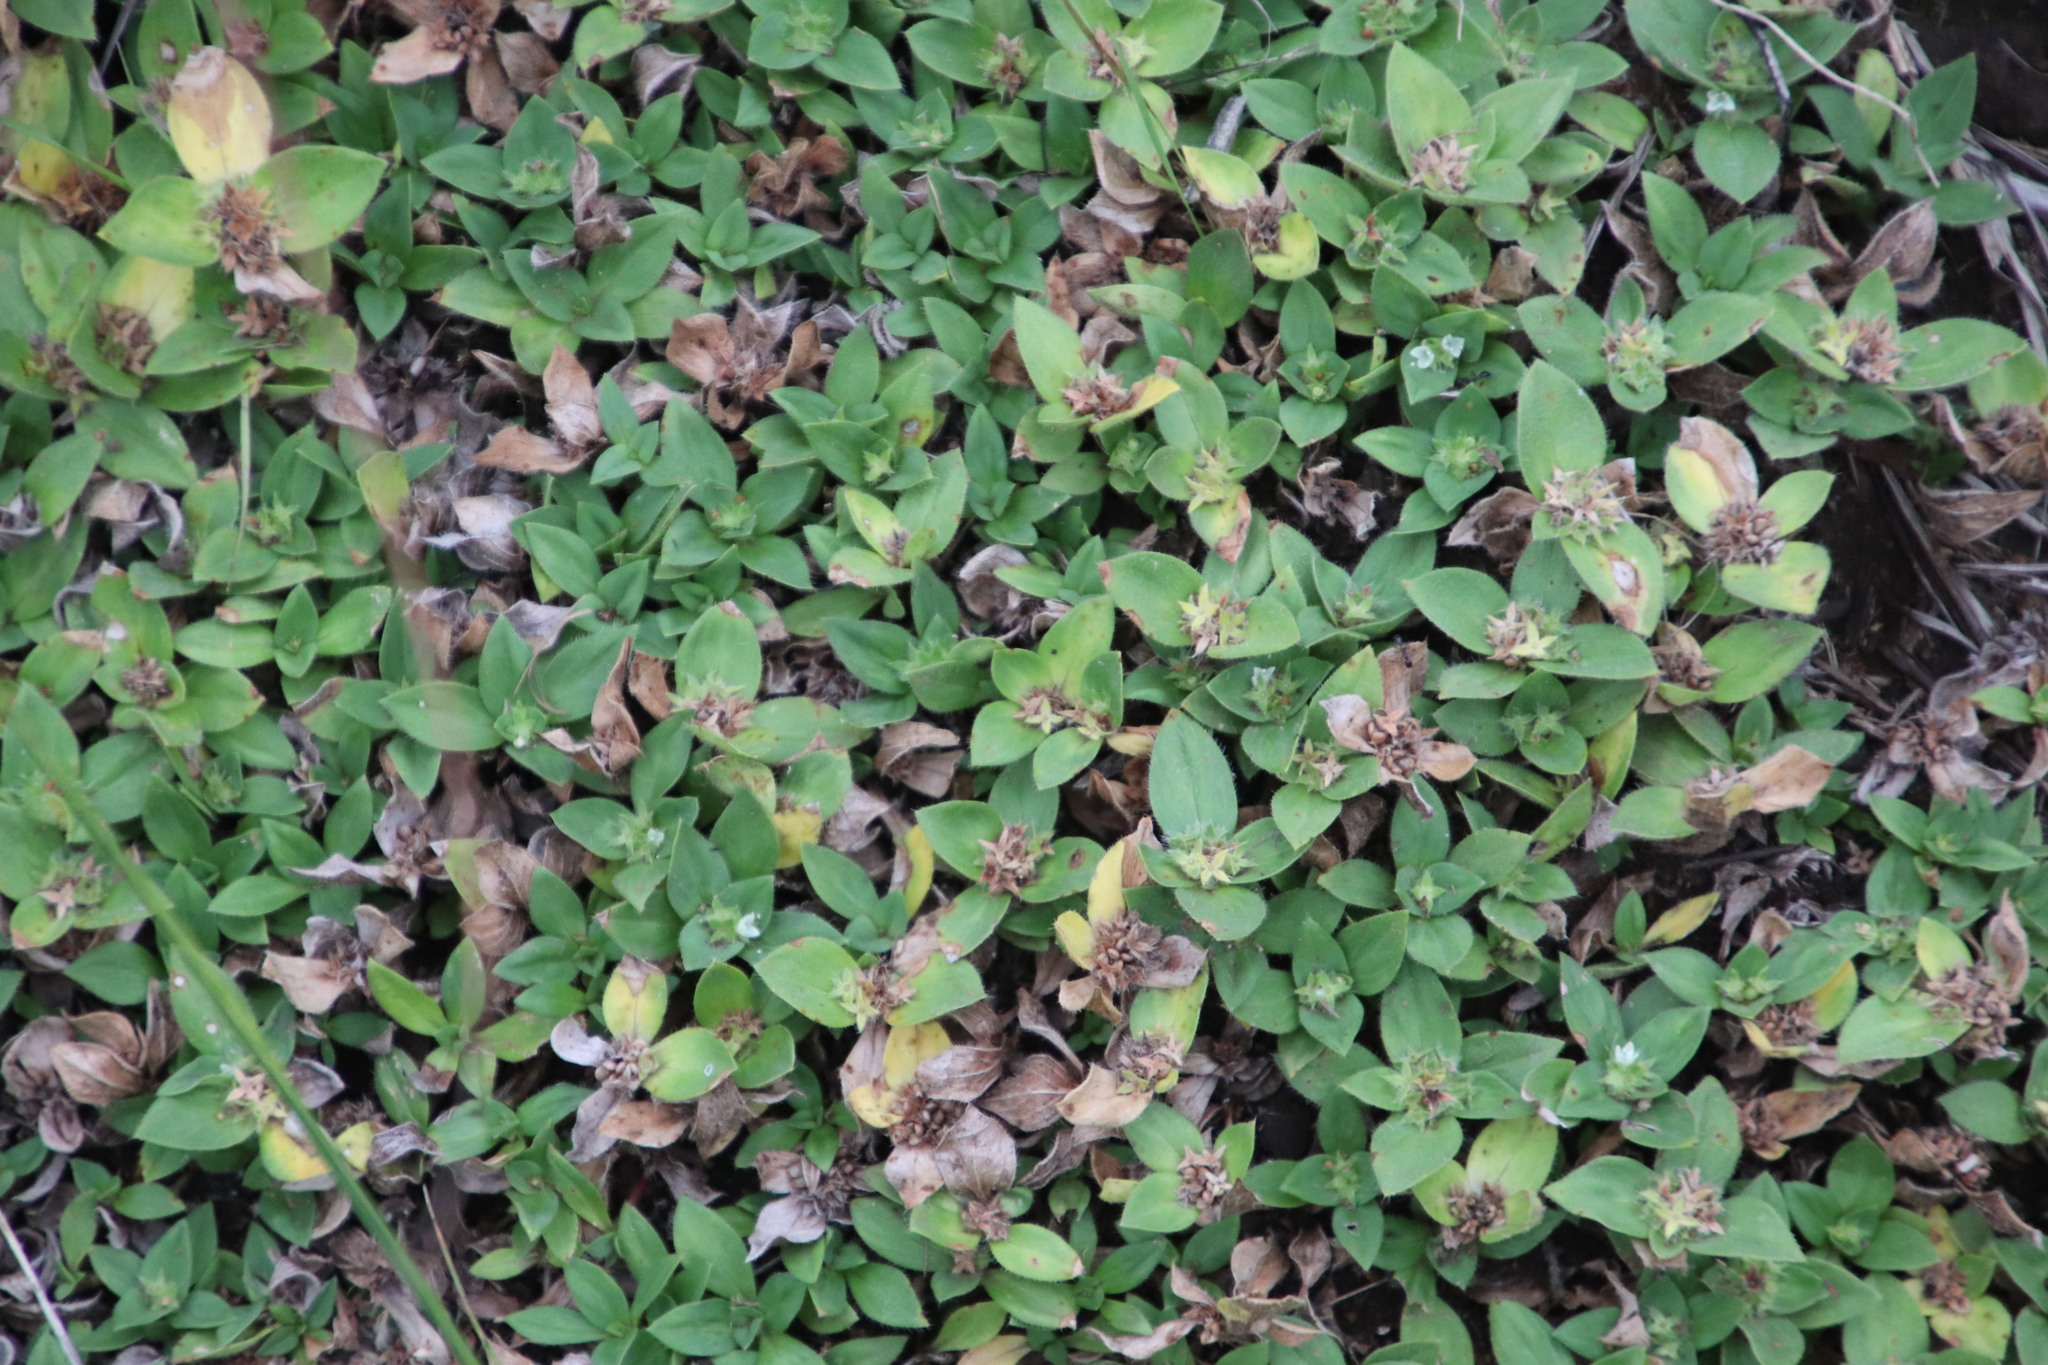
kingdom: Plantae
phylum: Tracheophyta
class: Magnoliopsida
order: Gentianales
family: Rubiaceae
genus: Richardia
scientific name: Richardia brasiliensis
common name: Tropical mexican clover
